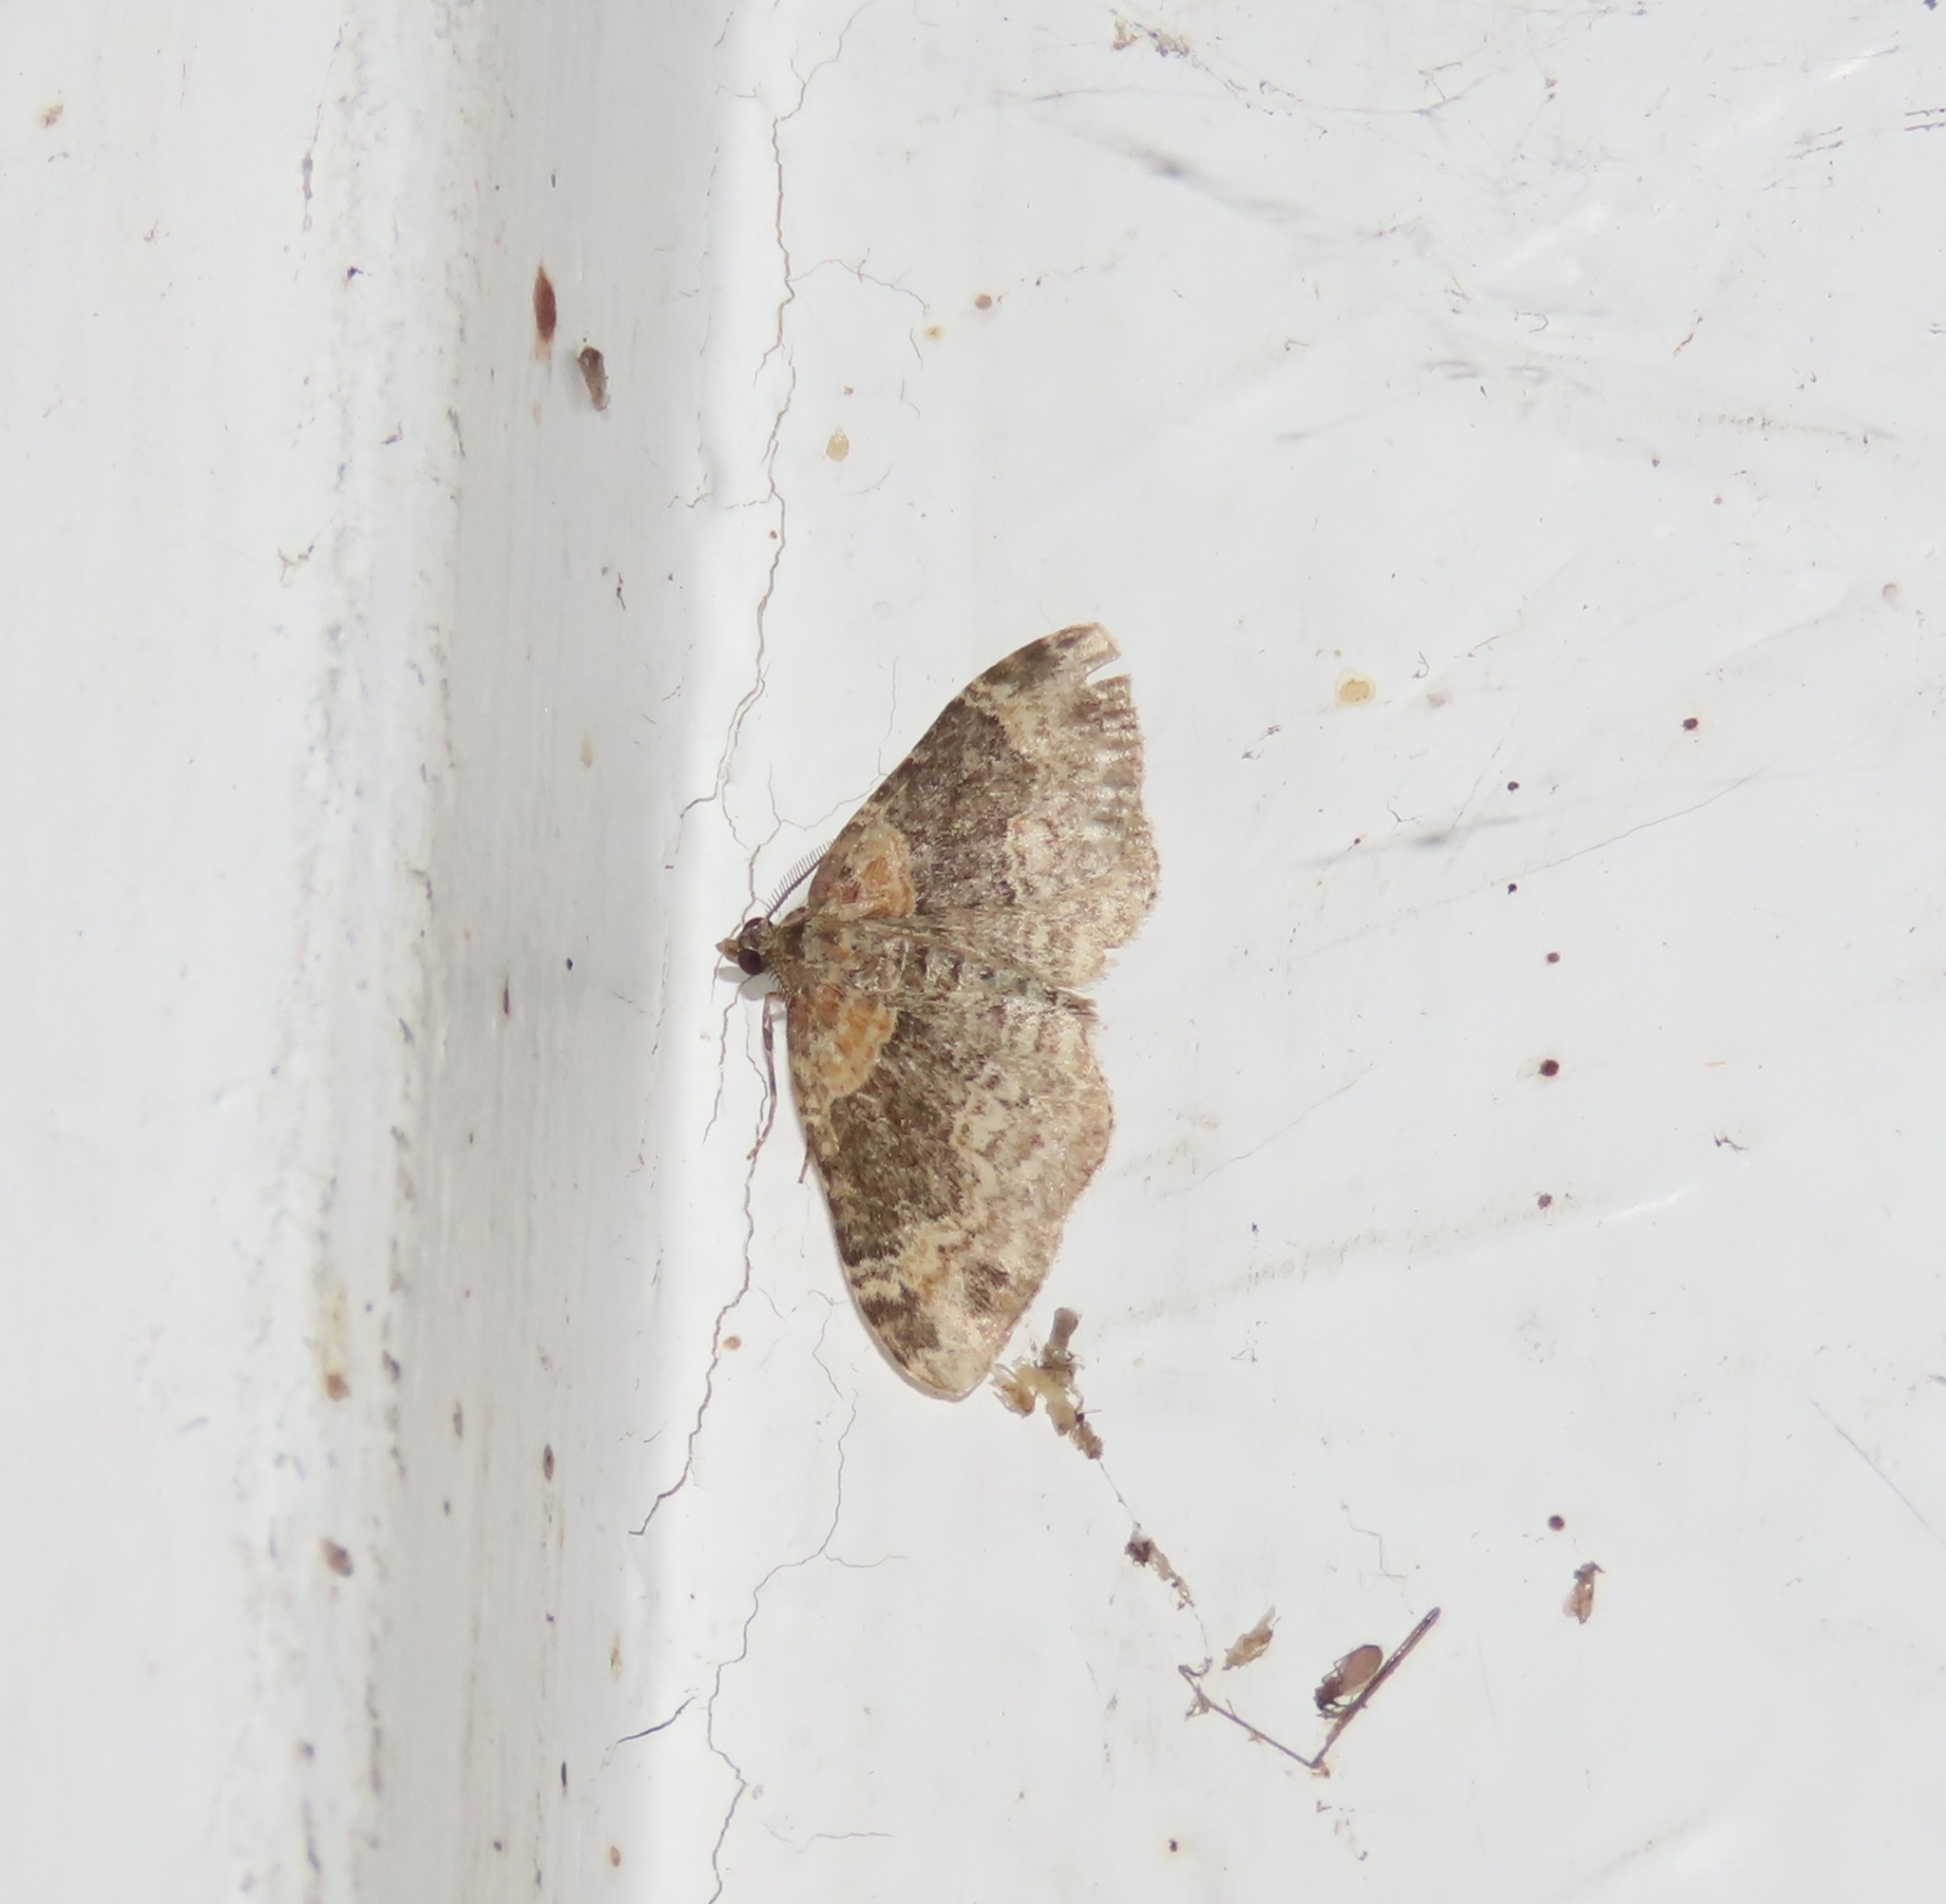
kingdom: Animalia
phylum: Arthropoda
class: Insecta
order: Lepidoptera
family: Geometridae
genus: Xanthorhoe
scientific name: Xanthorhoe ferrugata
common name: Dark-barred twin-spot carpet
